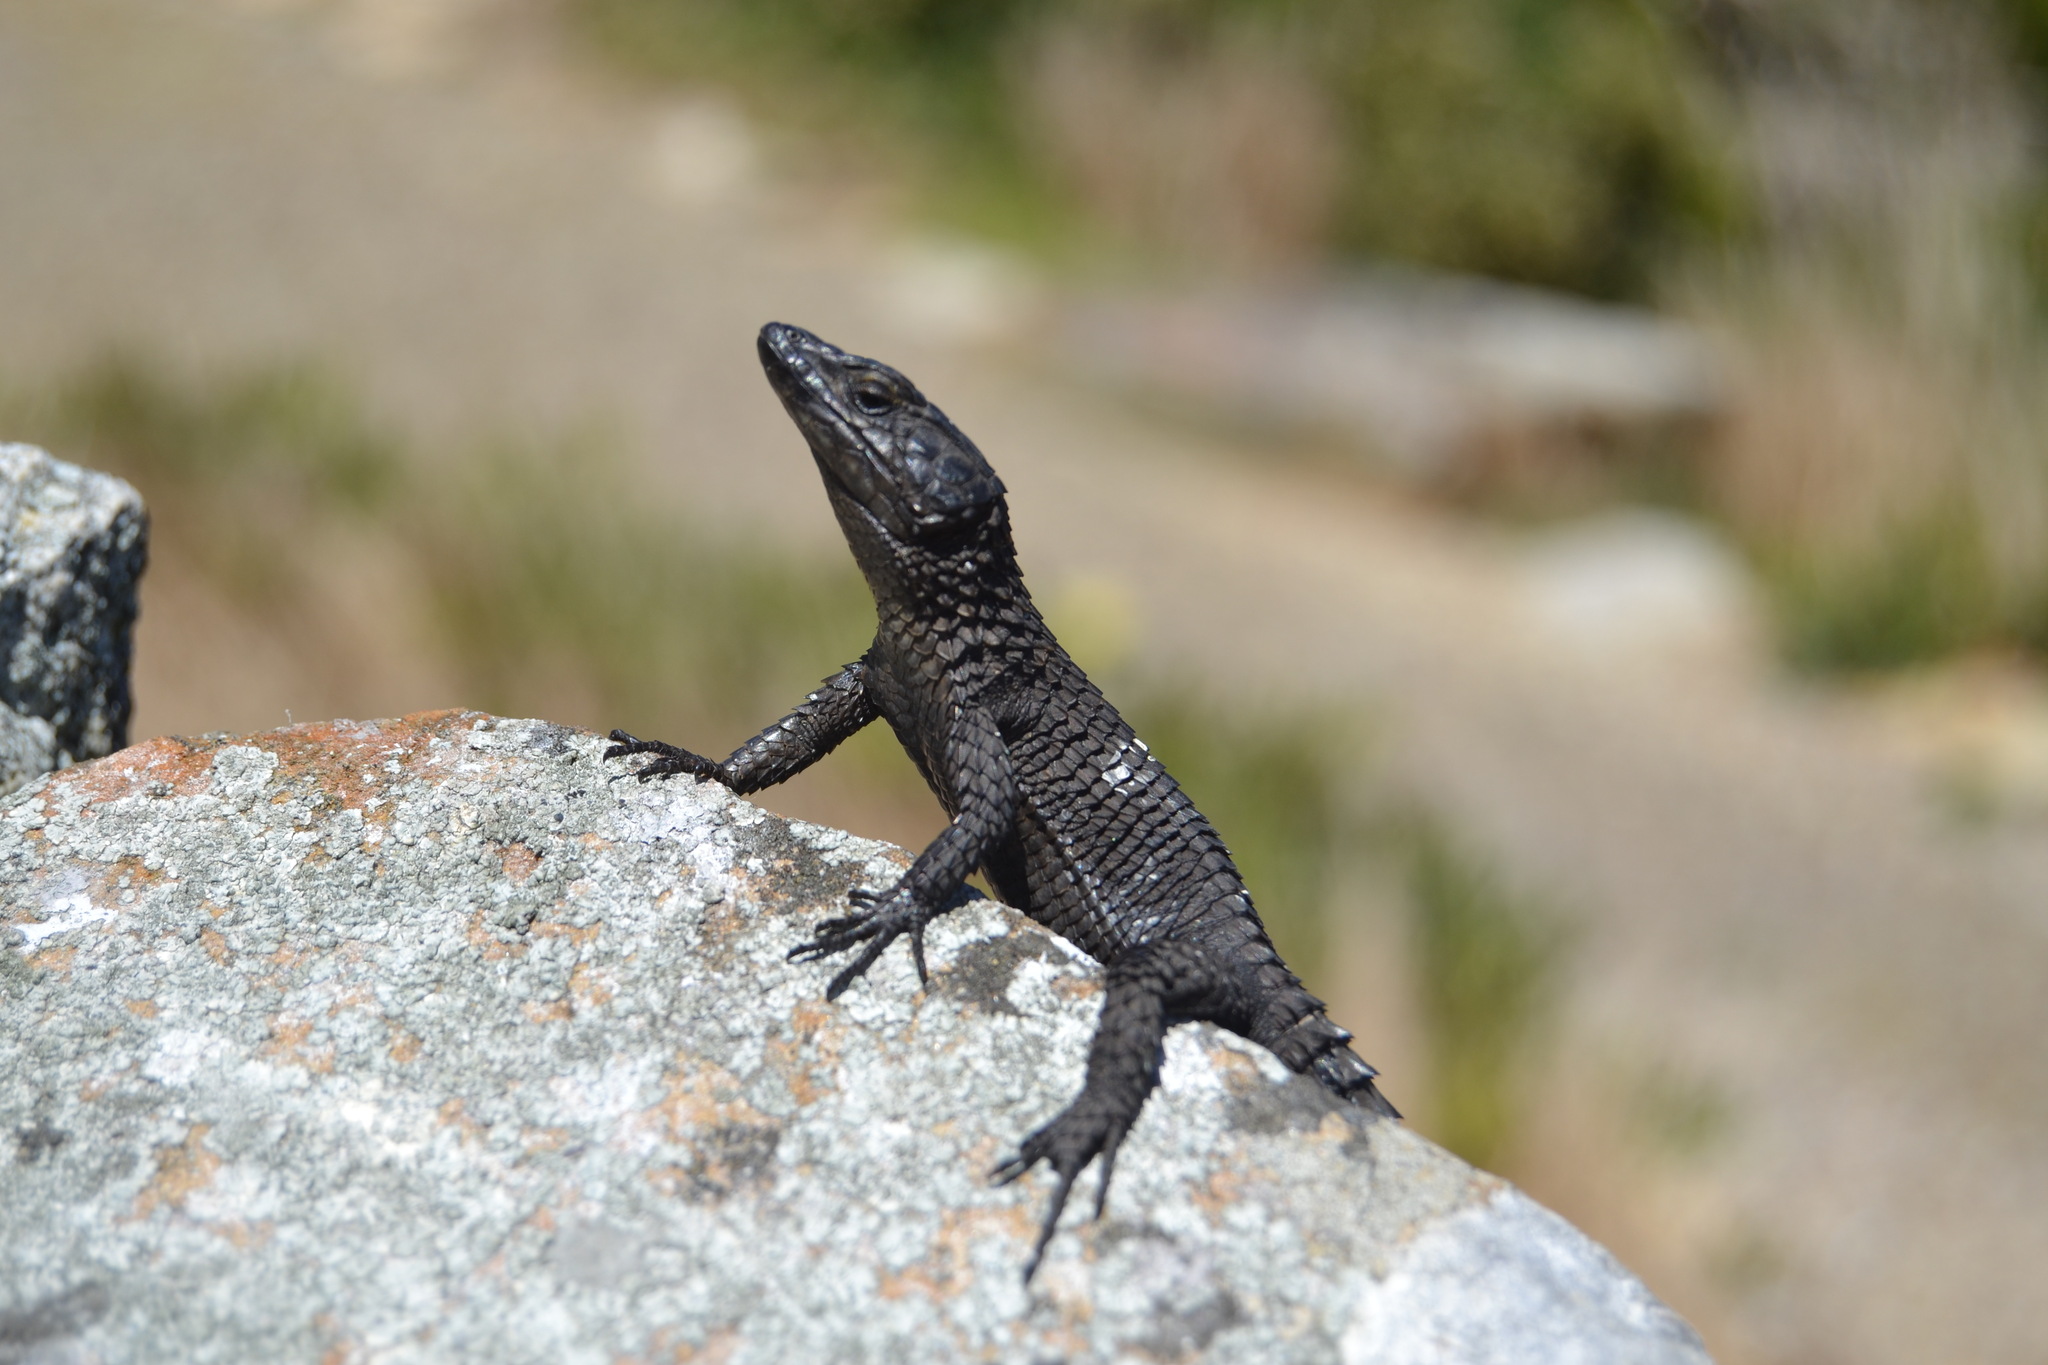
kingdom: Animalia
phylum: Chordata
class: Squamata
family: Cordylidae
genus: Cordylus
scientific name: Cordylus niger
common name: Black girdled lizard
